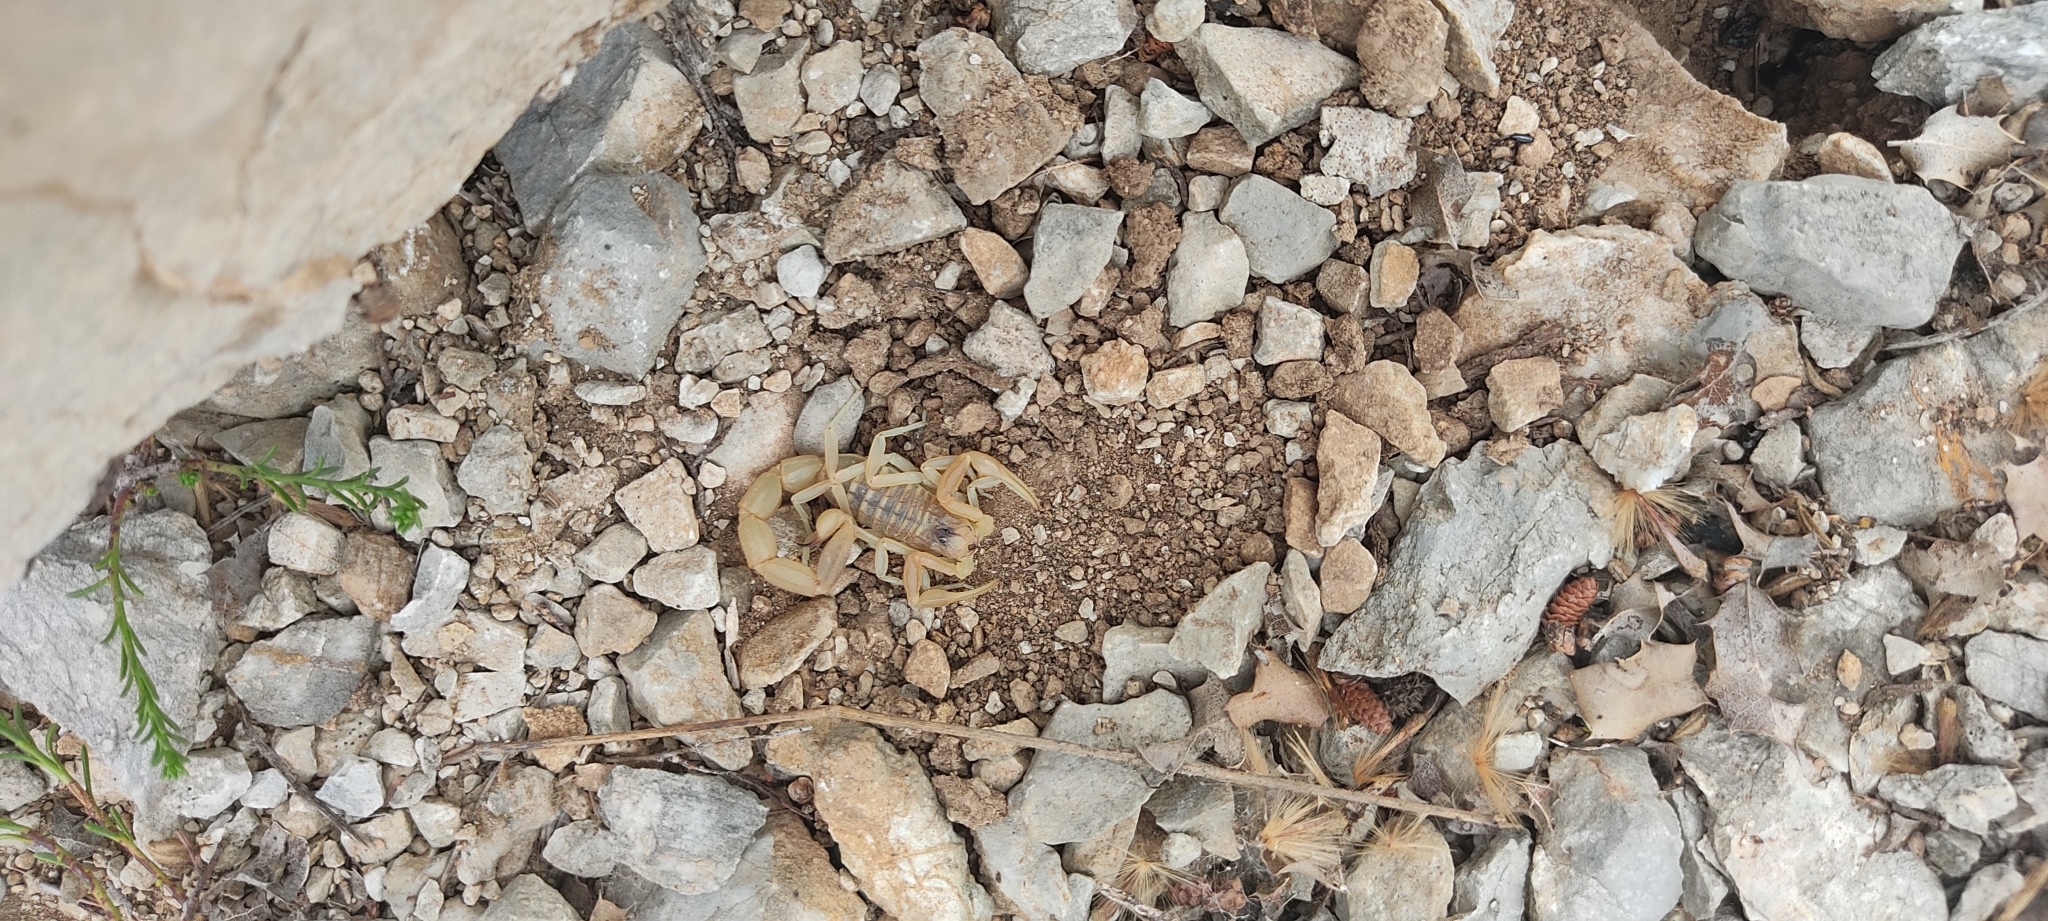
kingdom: Animalia
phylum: Arthropoda
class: Arachnida
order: Scorpiones
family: Buthidae
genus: Buthus
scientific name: Buthus occitanus
